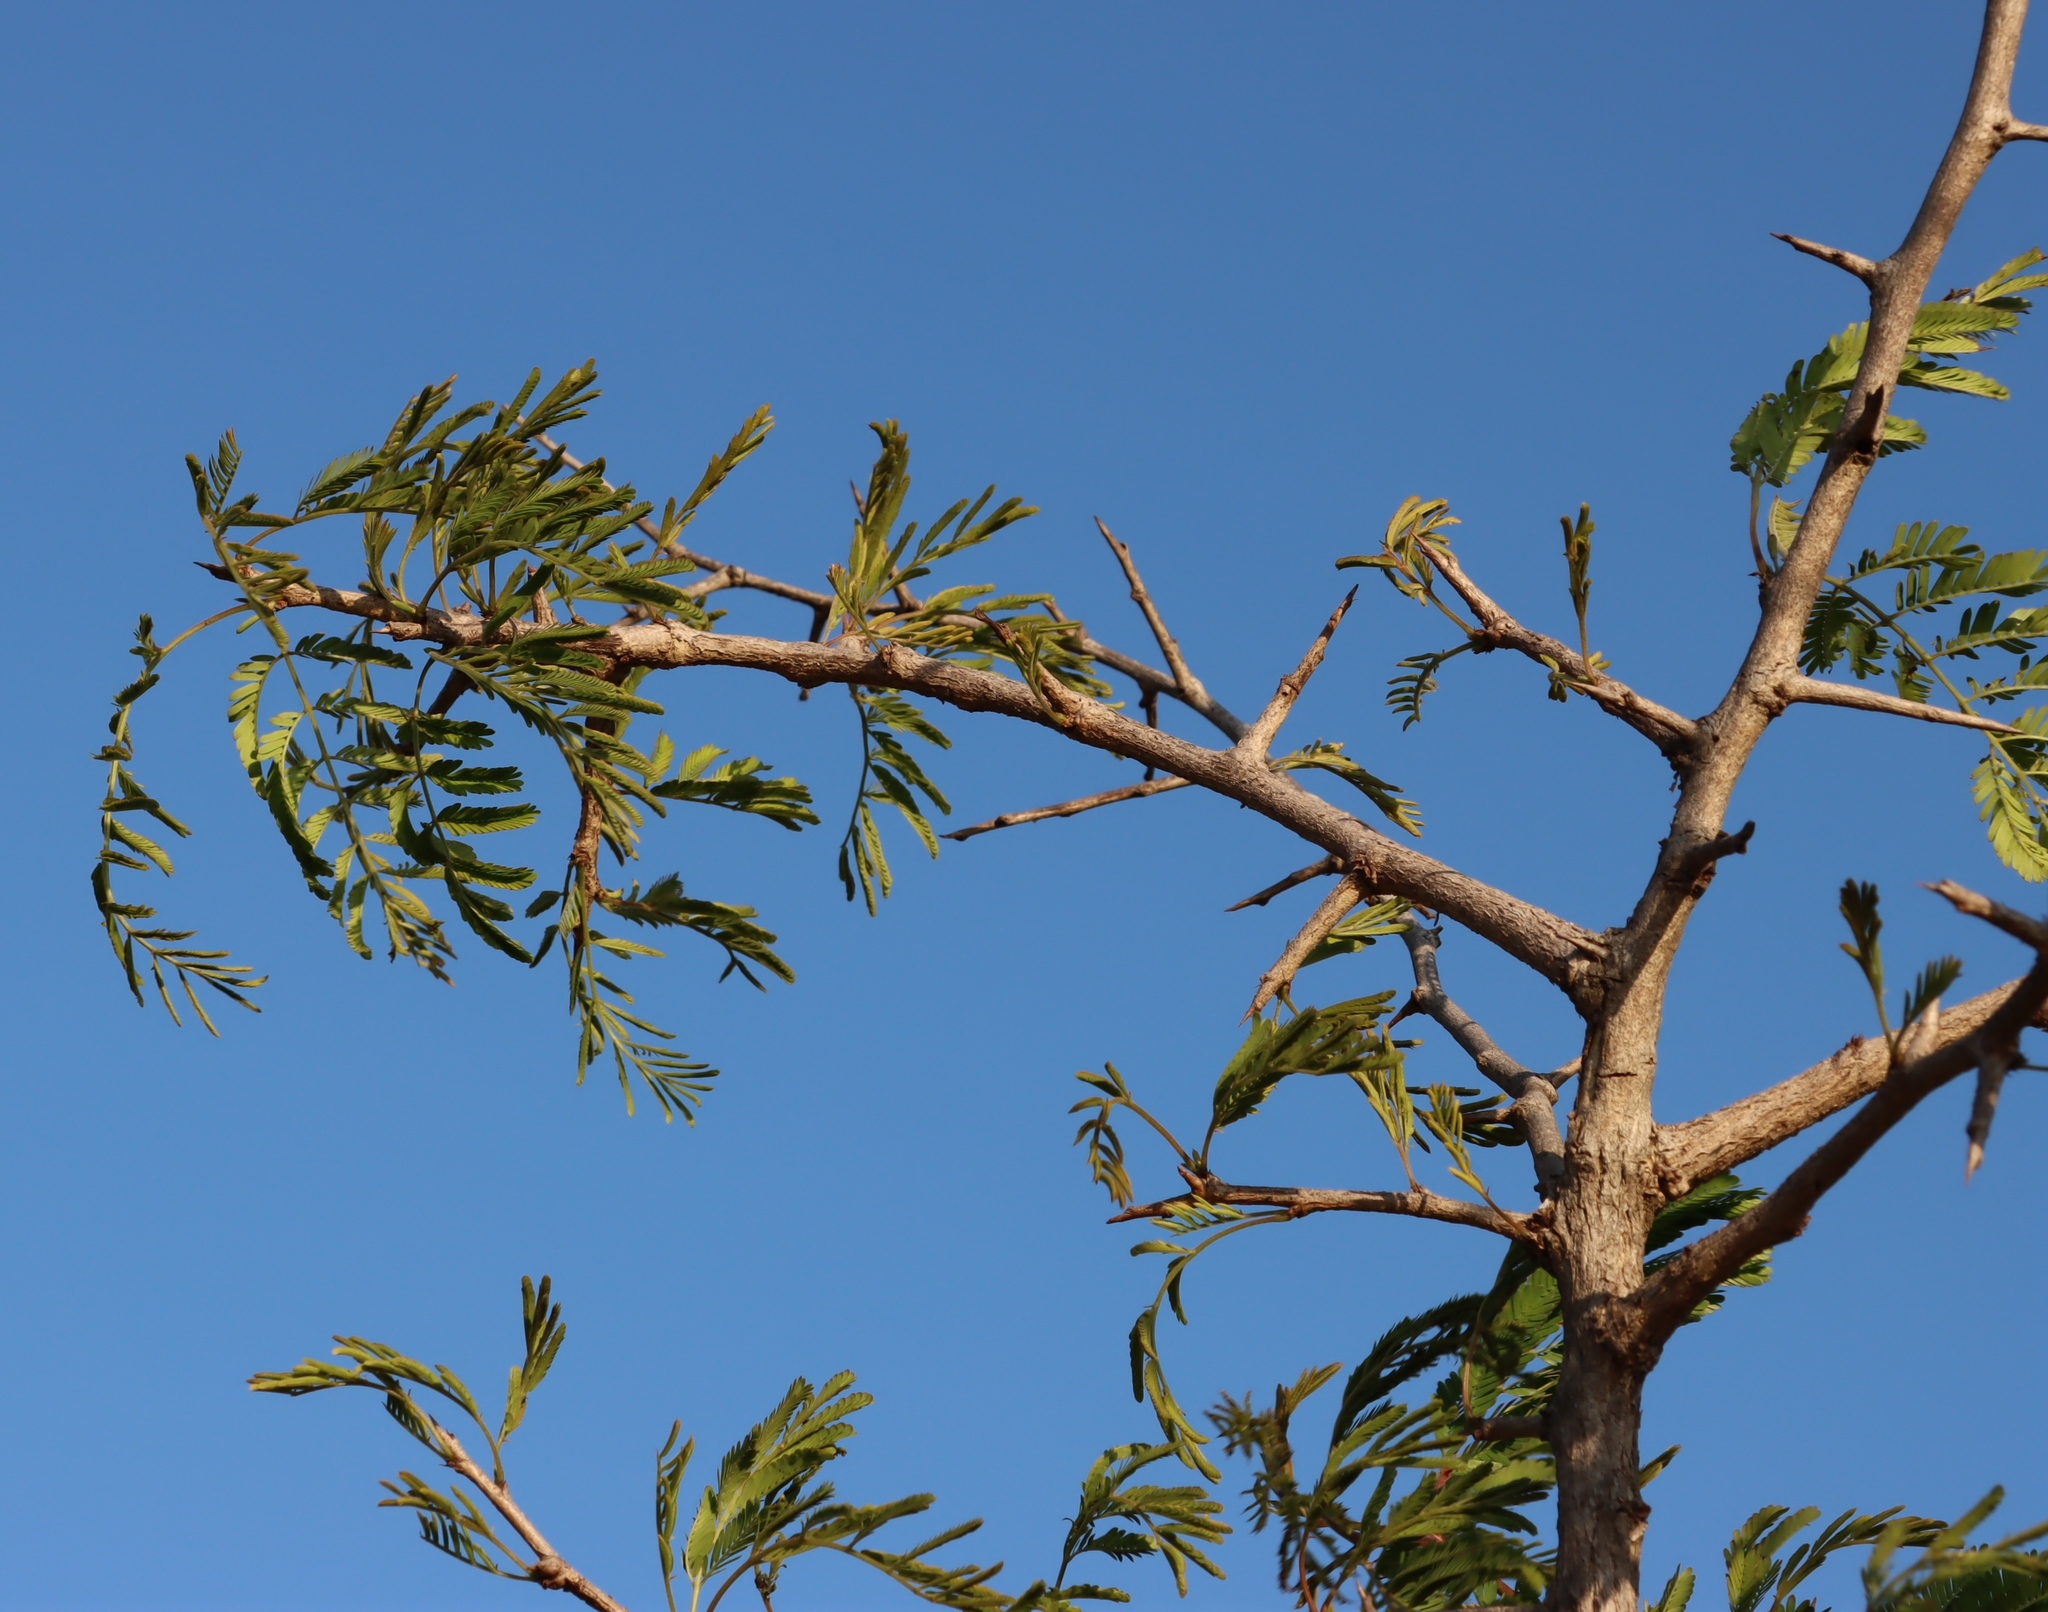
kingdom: Plantae
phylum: Tracheophyta
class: Magnoliopsida
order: Fabales
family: Fabaceae
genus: Dichrostachys
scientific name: Dichrostachys cinerea
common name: Sicklebush
